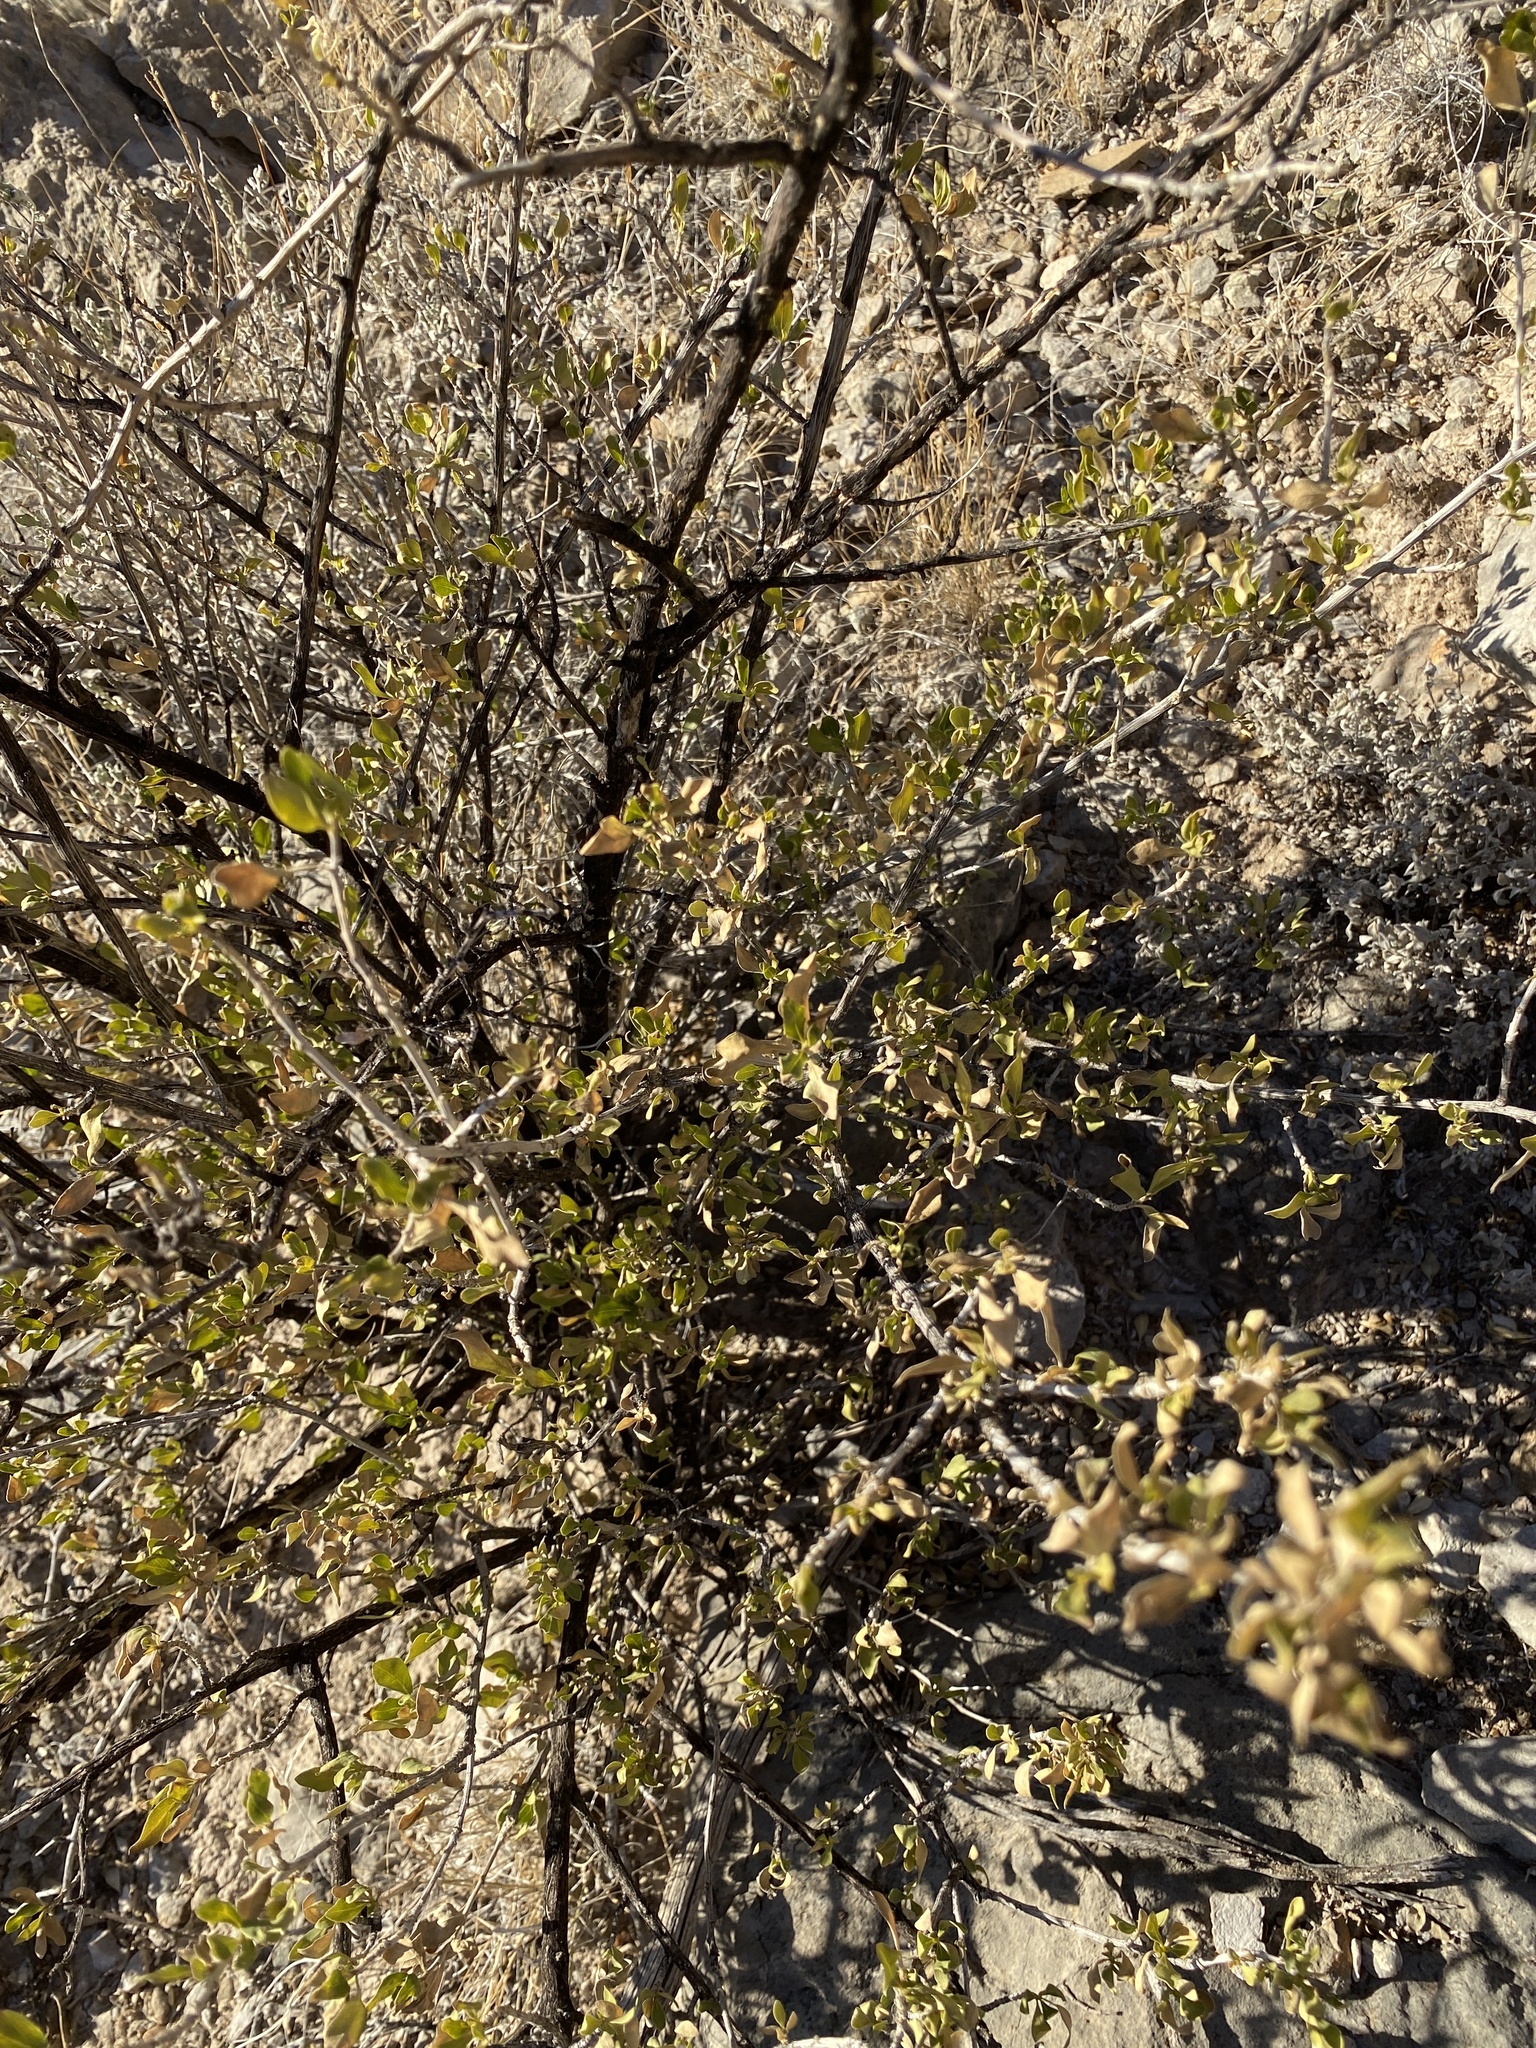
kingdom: Plantae
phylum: Tracheophyta
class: Magnoliopsida
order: Asterales
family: Asteraceae
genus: Flourensia
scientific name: Flourensia cernua
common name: Varnishbush
